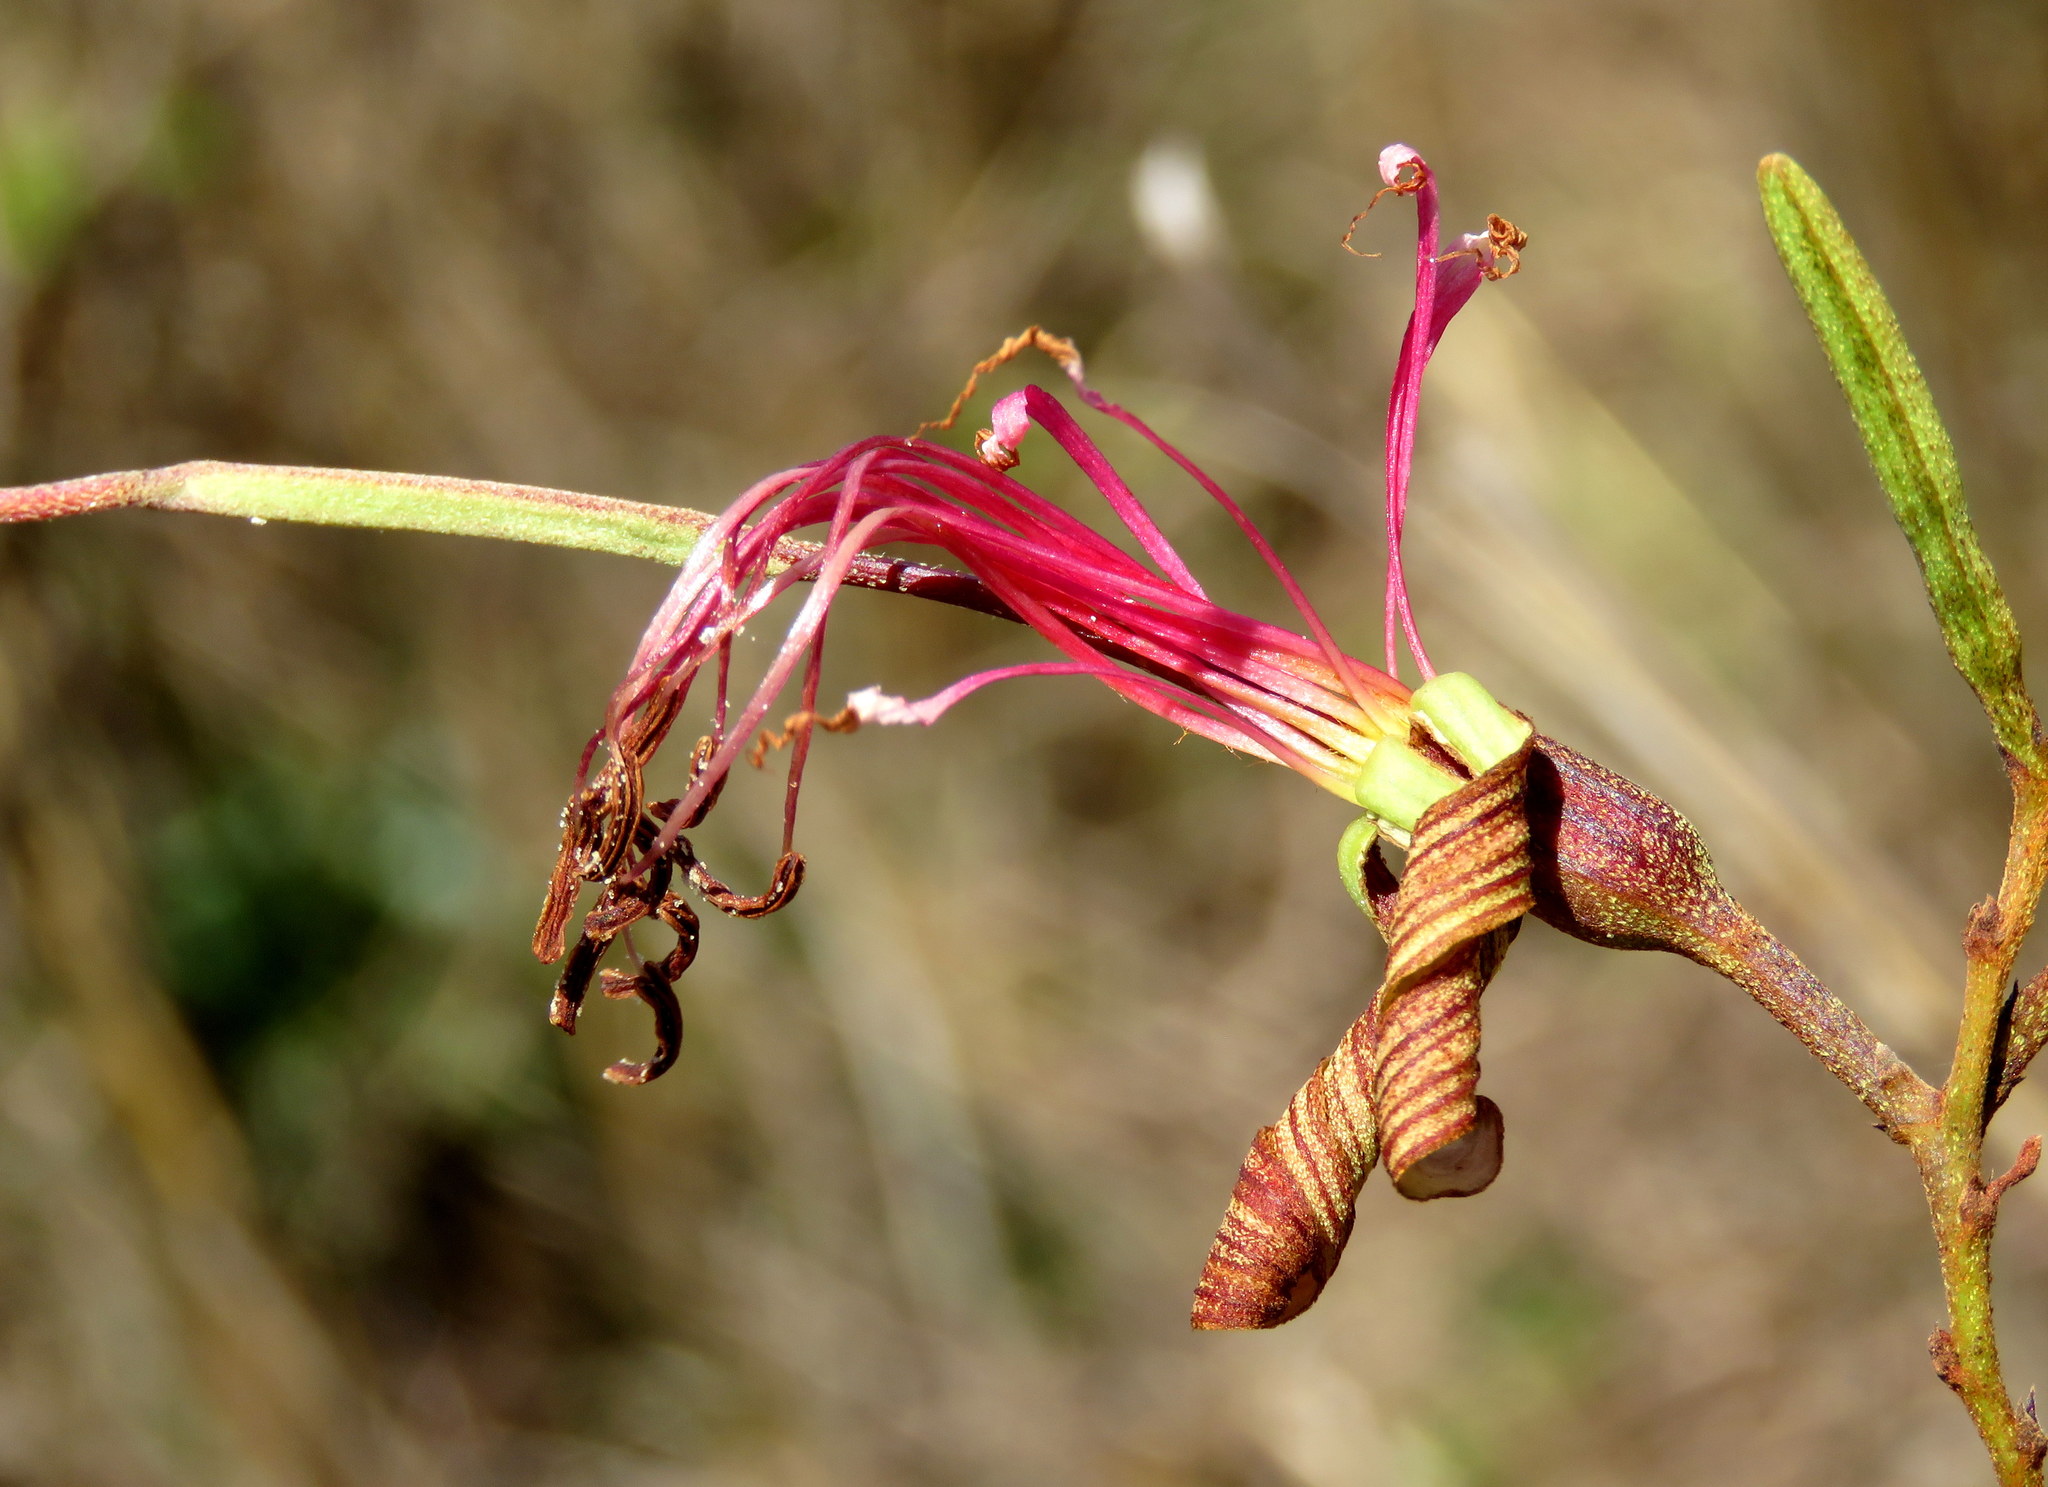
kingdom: Plantae
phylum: Tracheophyta
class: Magnoliopsida
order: Fabales
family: Fabaceae
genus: Bauhinia
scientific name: Bauhinia ungulata
